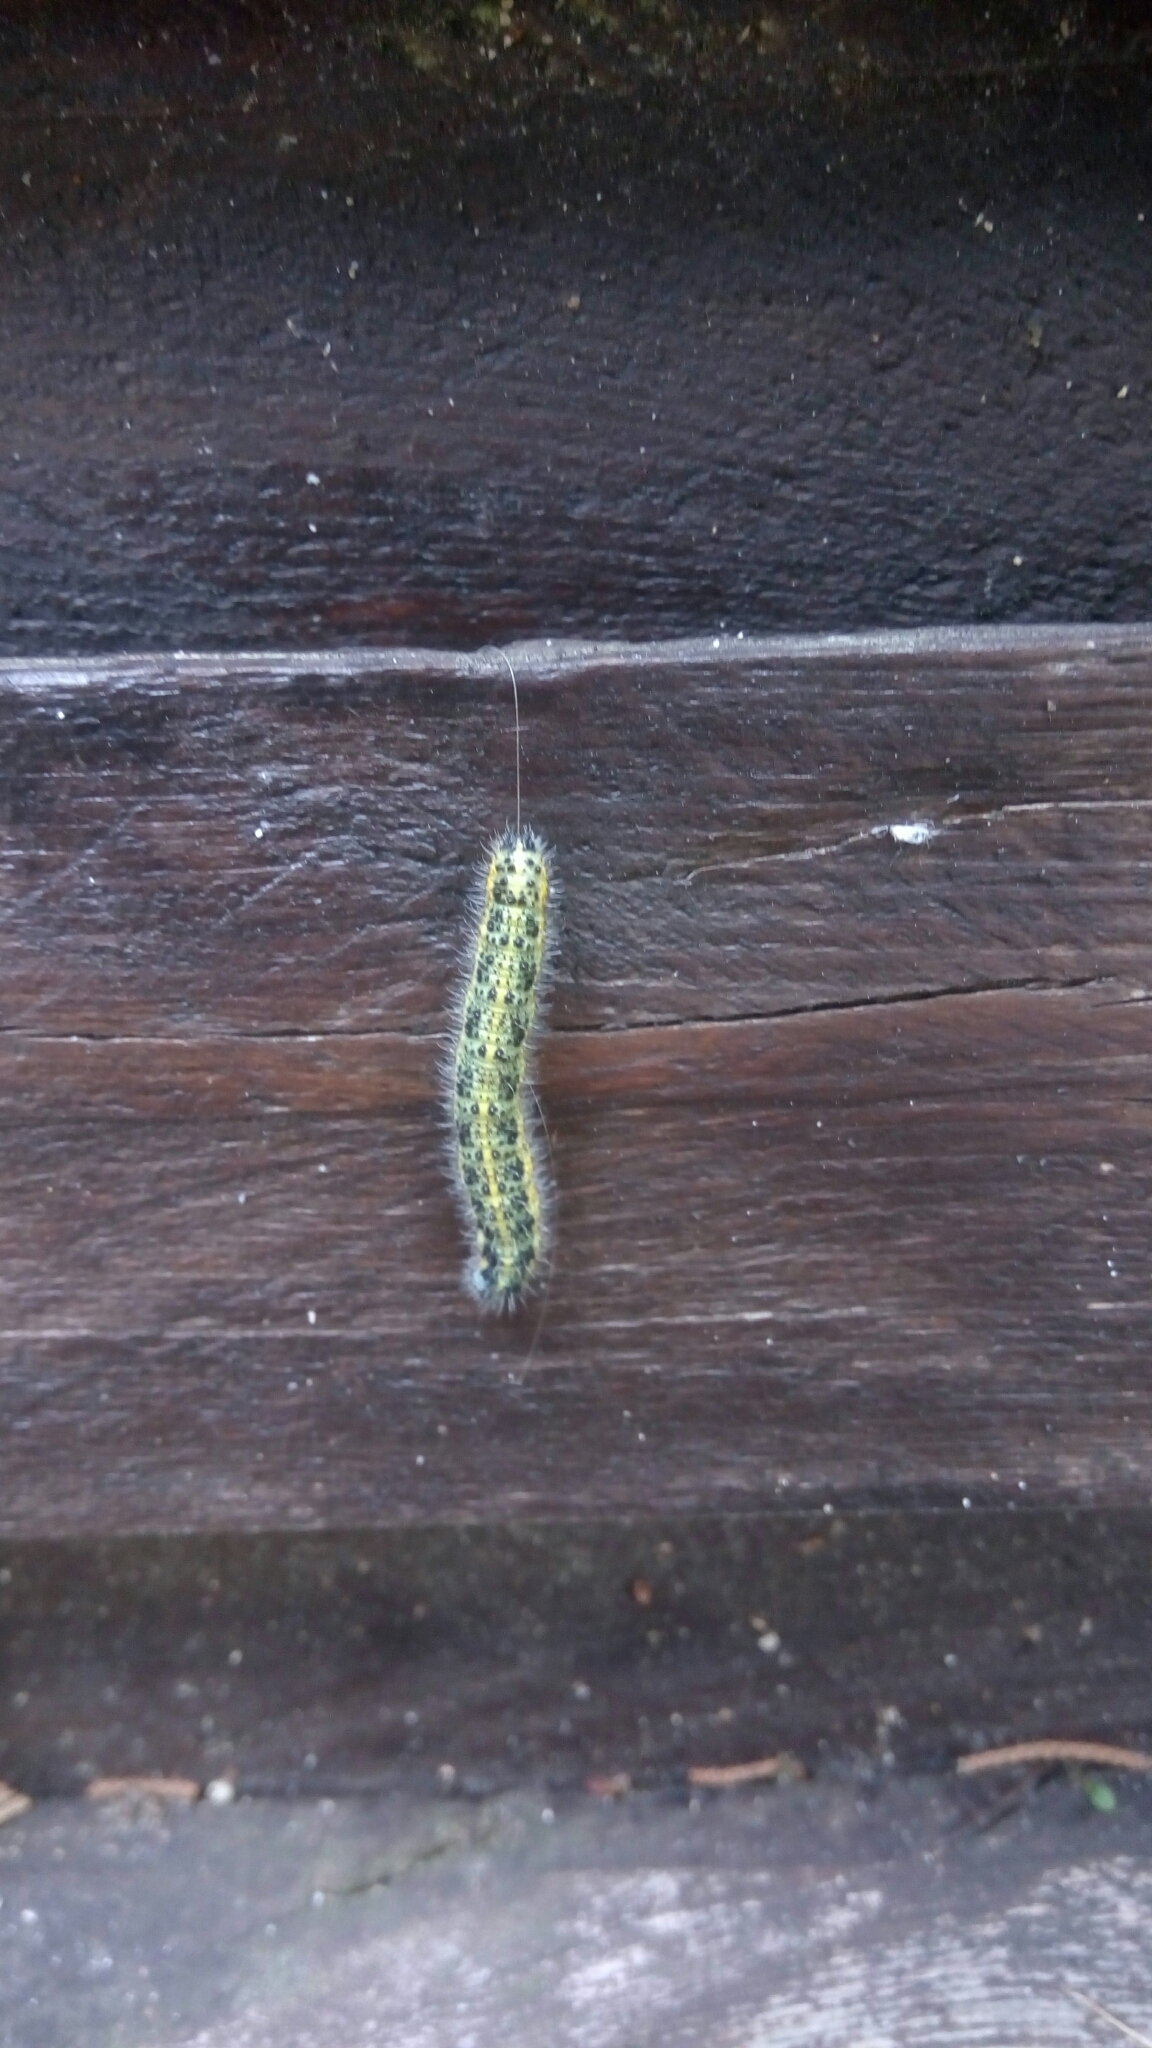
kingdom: Animalia
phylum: Arthropoda
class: Insecta
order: Lepidoptera
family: Pieridae
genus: Pieris
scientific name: Pieris brassicae
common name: Large white
